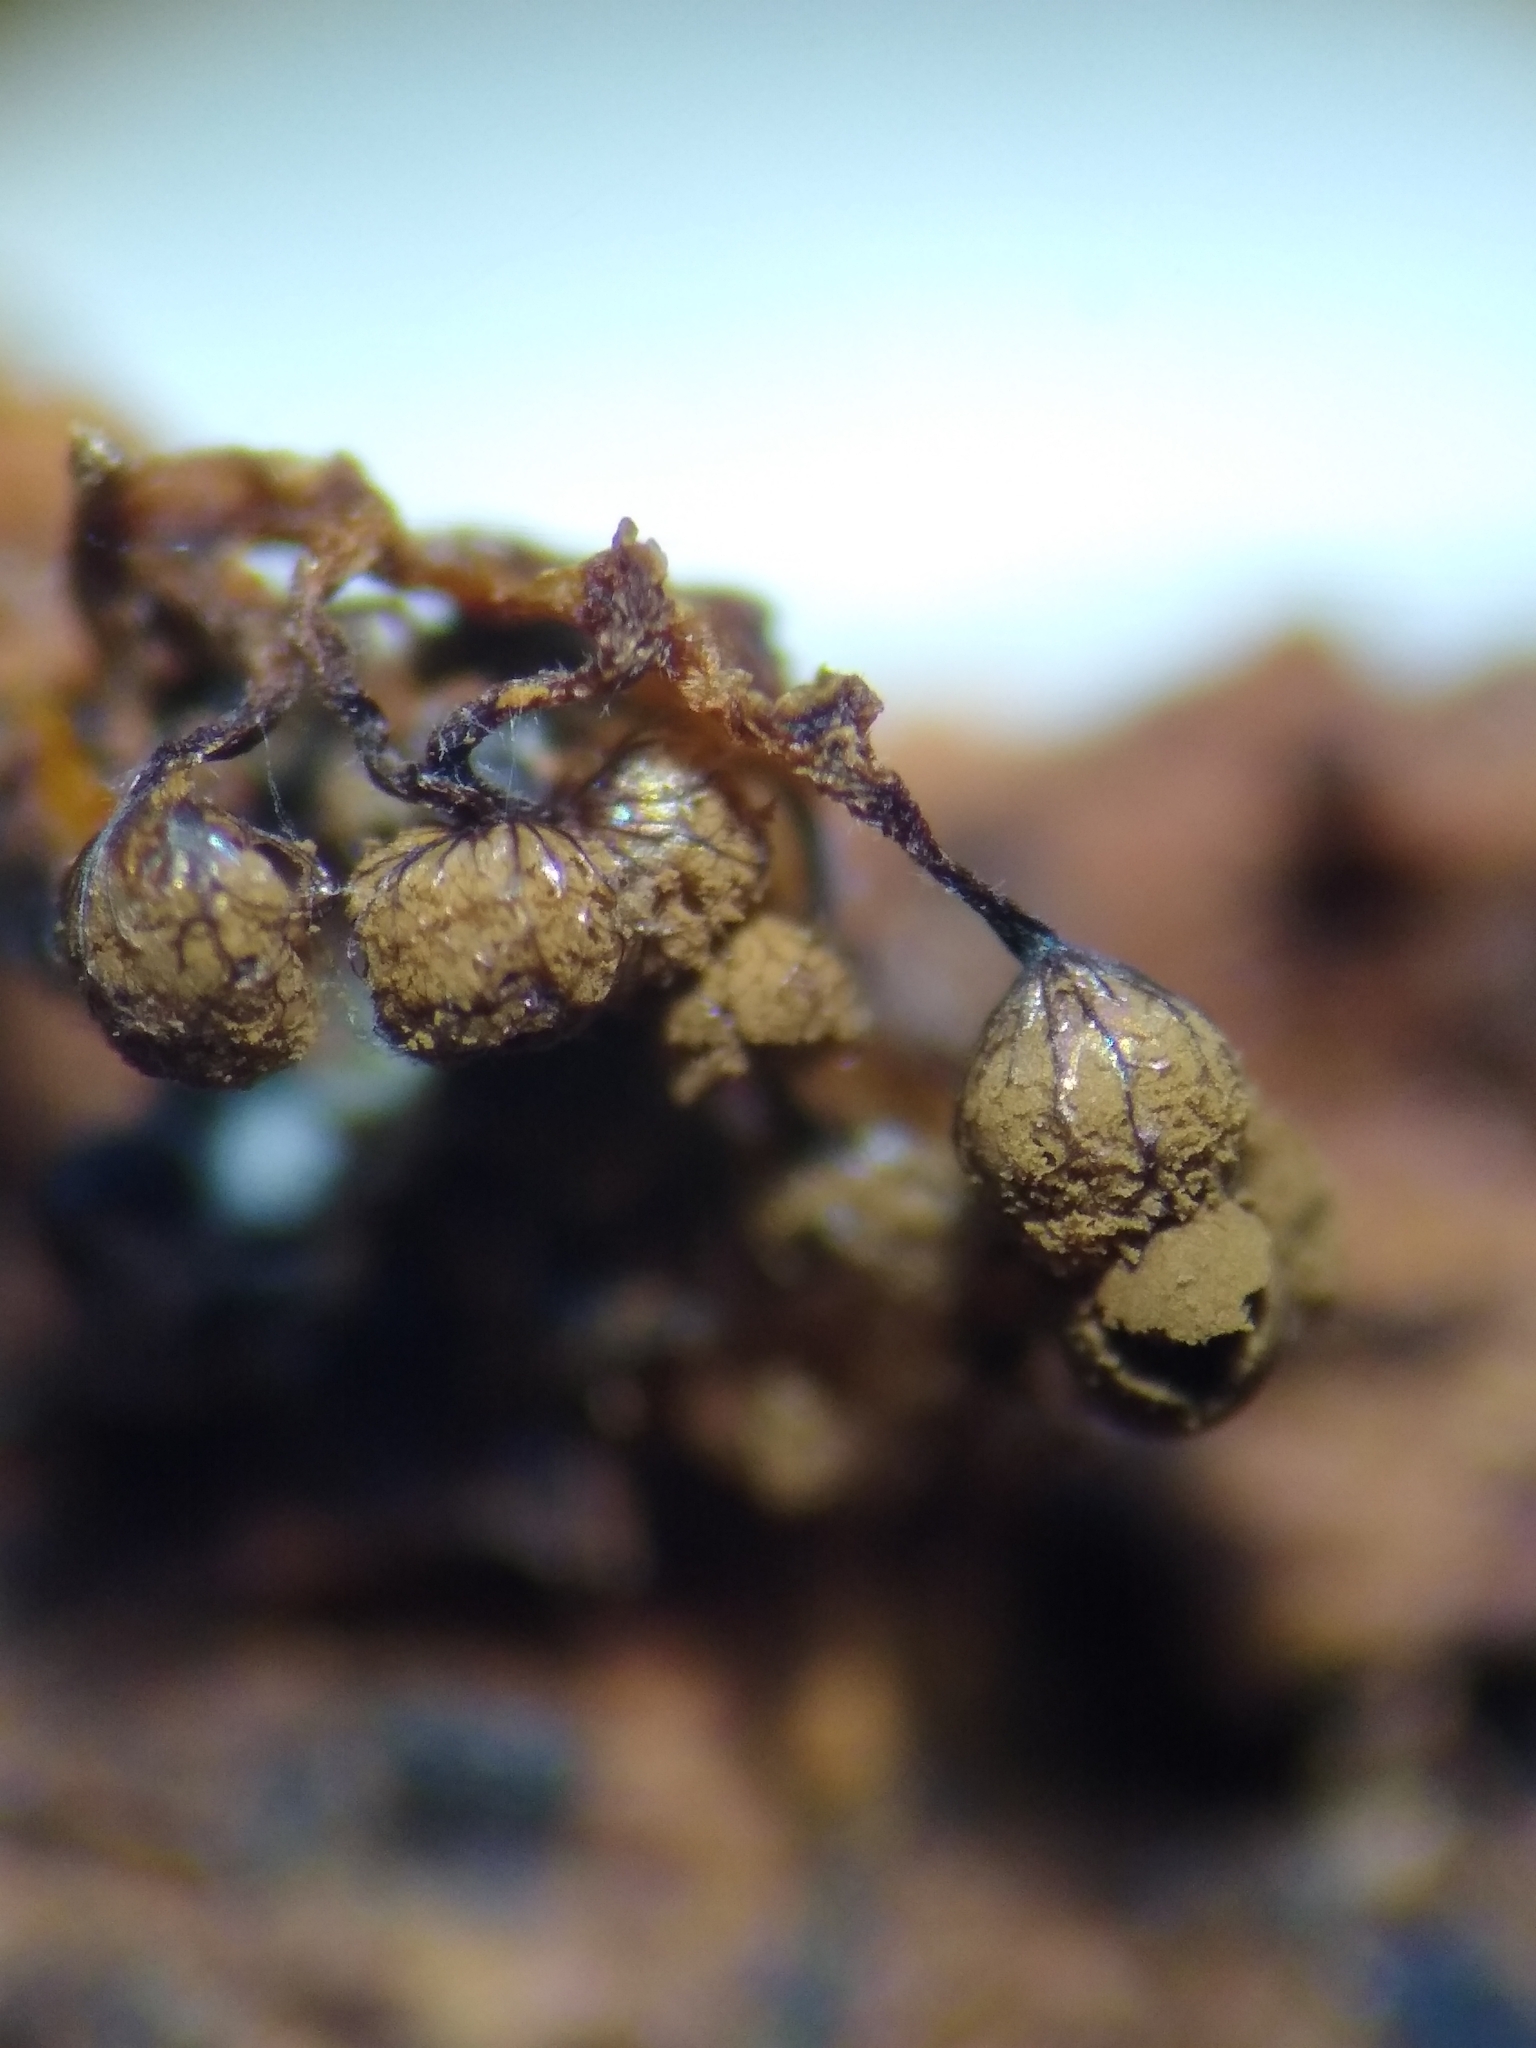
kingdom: Protozoa
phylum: Mycetozoa
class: Myxomycetes
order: Cribrariales
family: Cribrariaceae
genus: Cribraria
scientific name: Cribraria splendens
